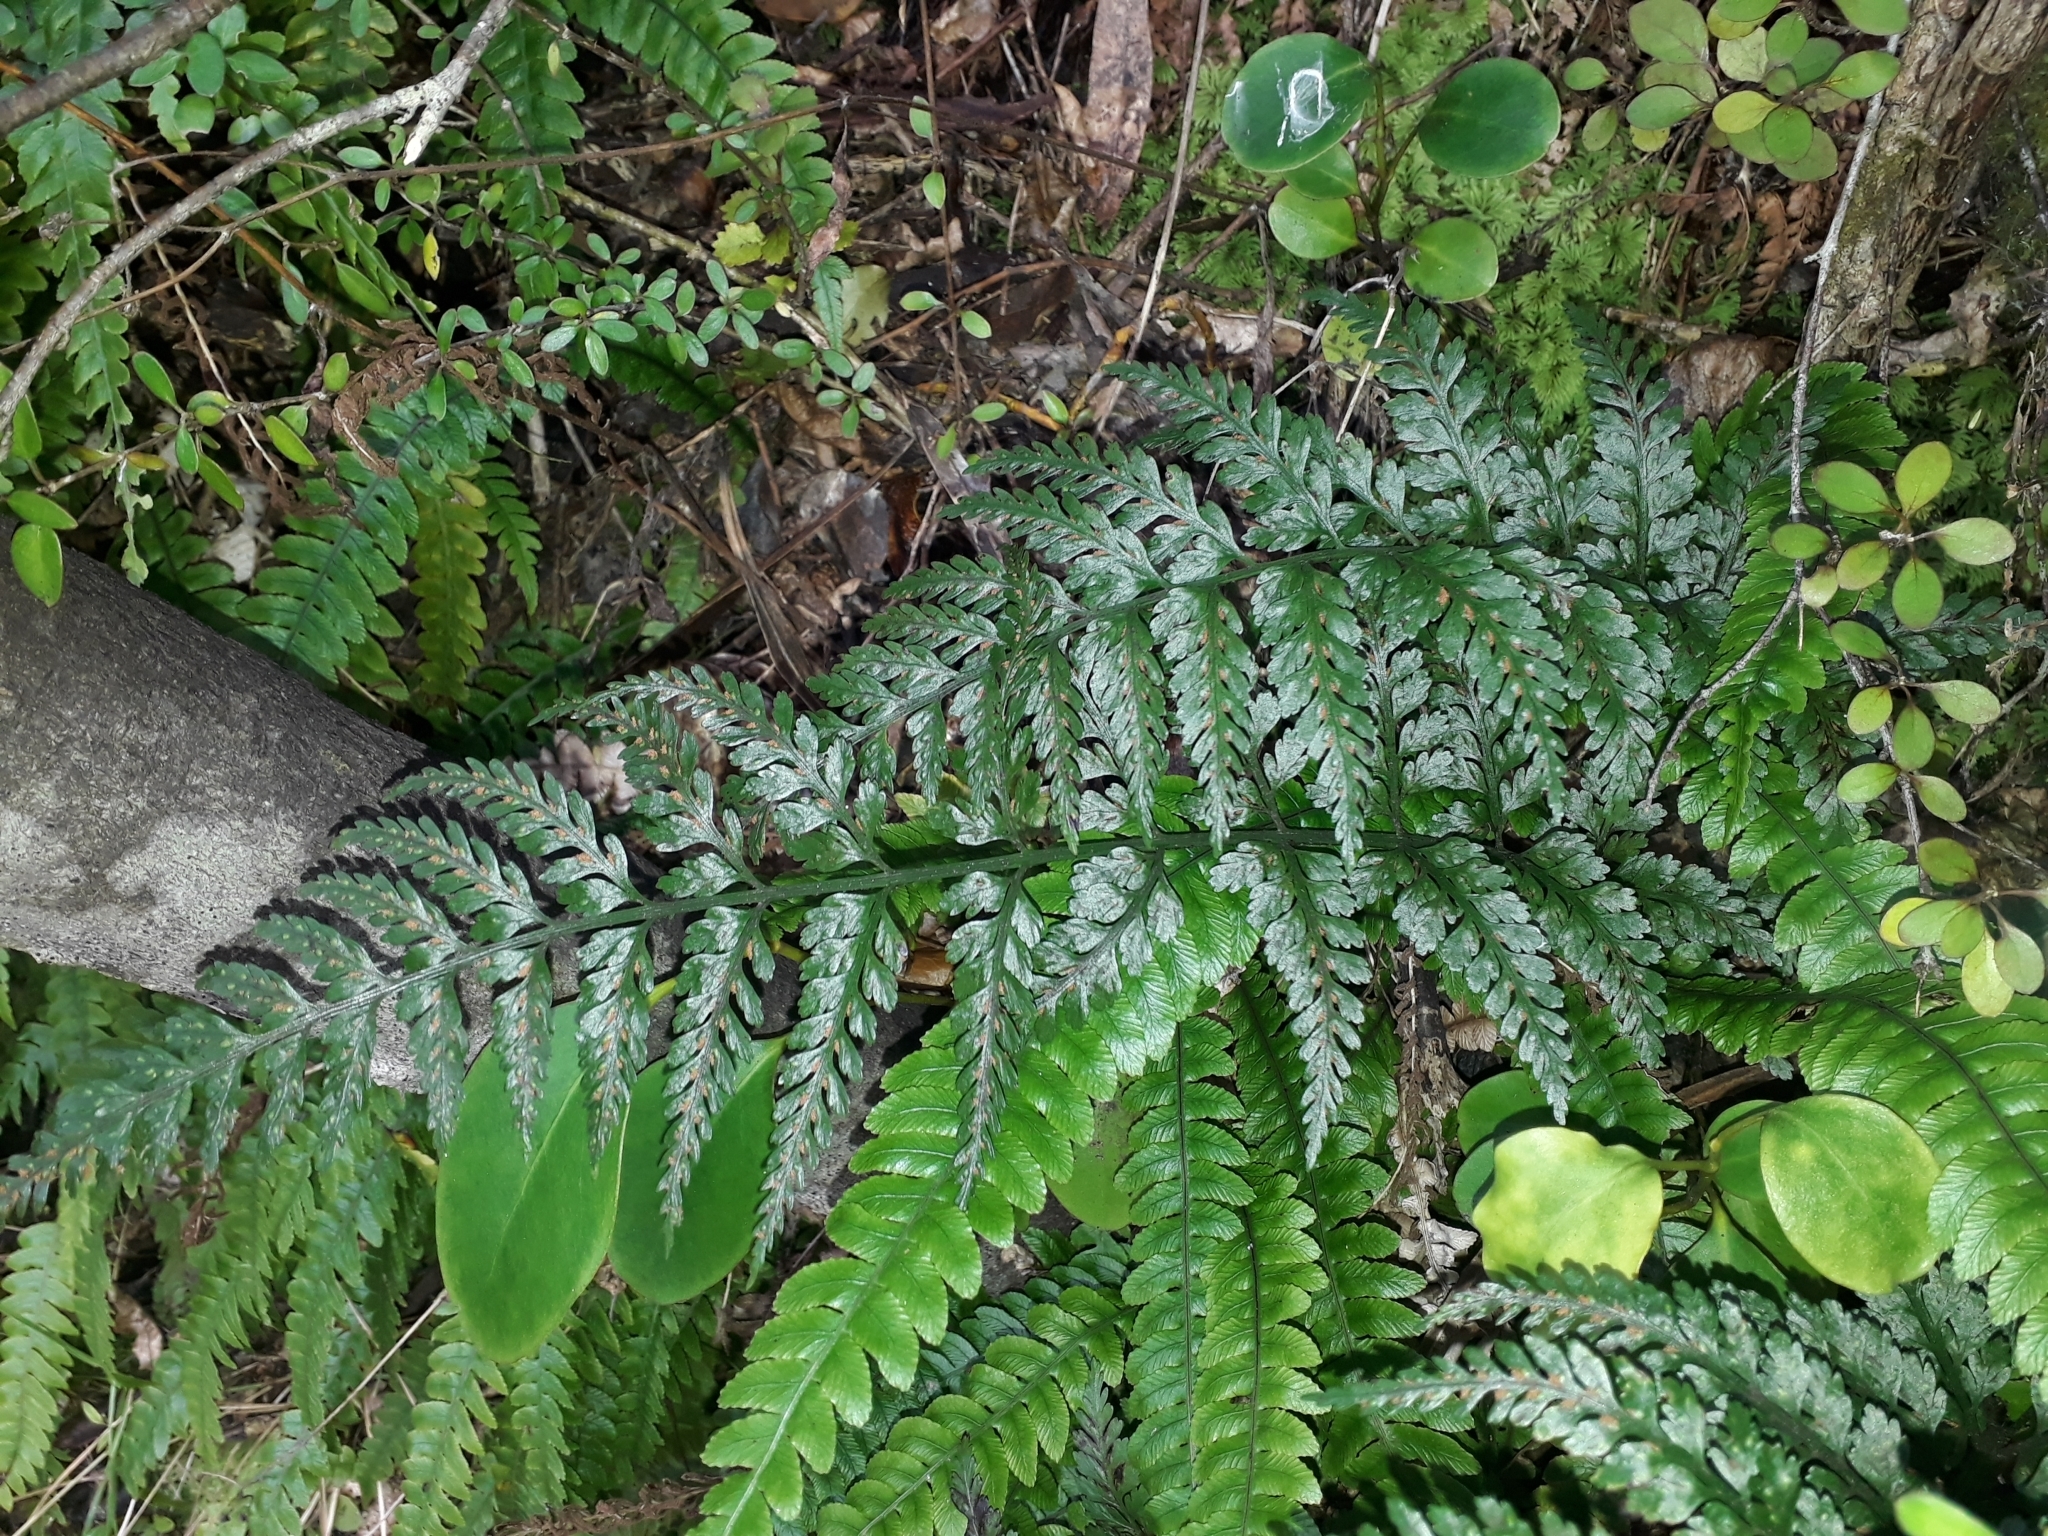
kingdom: Plantae
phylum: Tracheophyta
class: Polypodiopsida
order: Polypodiales
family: Aspleniaceae
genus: Asplenium
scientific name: Asplenium
